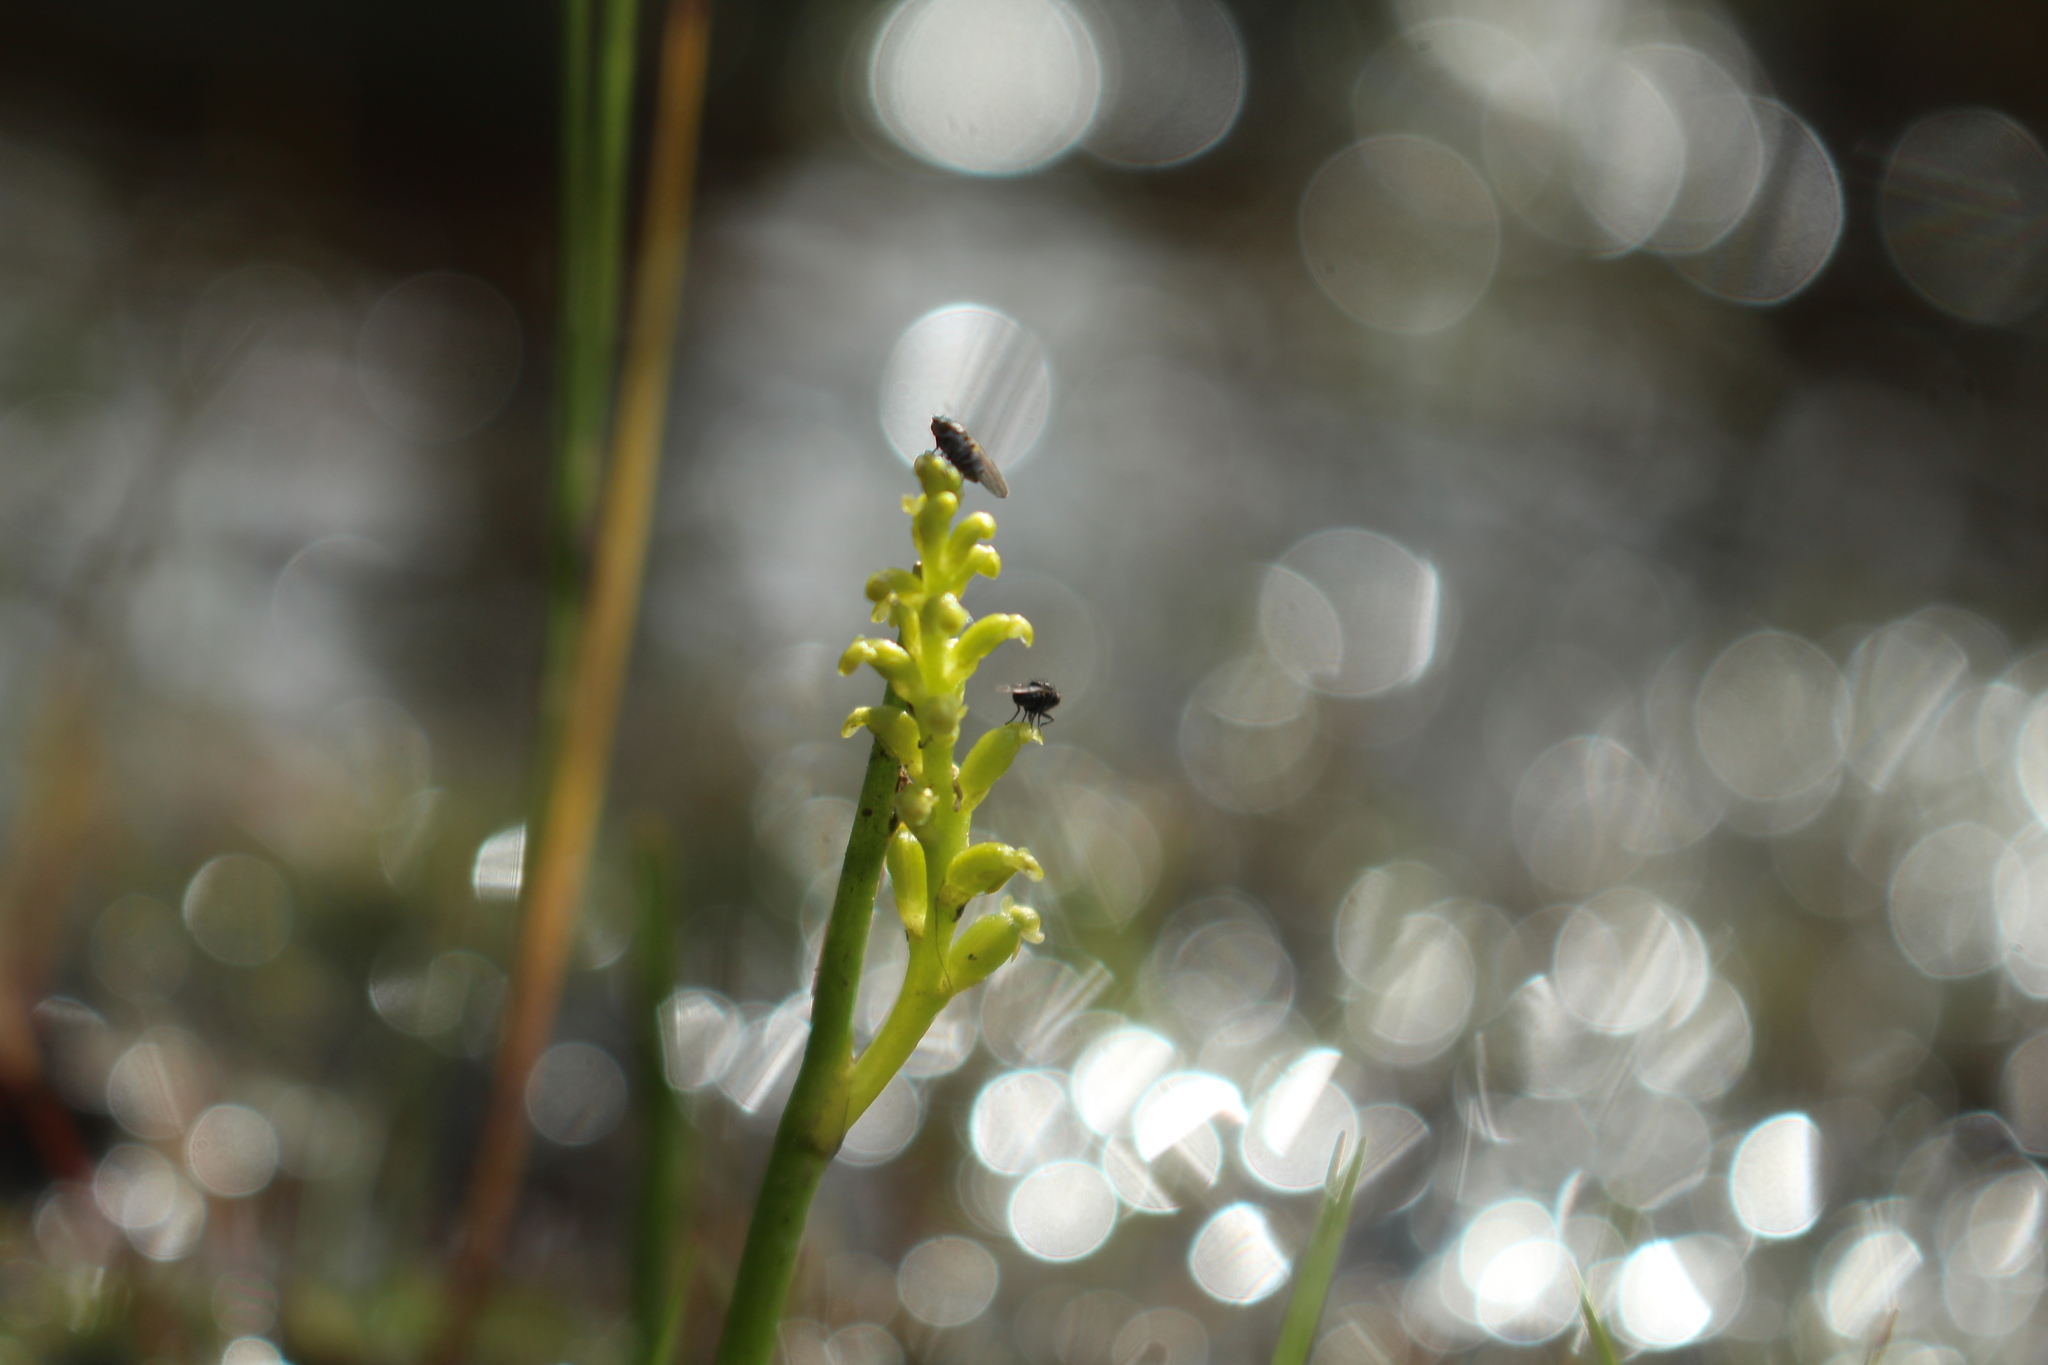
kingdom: Plantae
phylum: Tracheophyta
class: Liliopsida
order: Asparagales
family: Orchidaceae
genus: Microtis
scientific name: Microtis atrata
